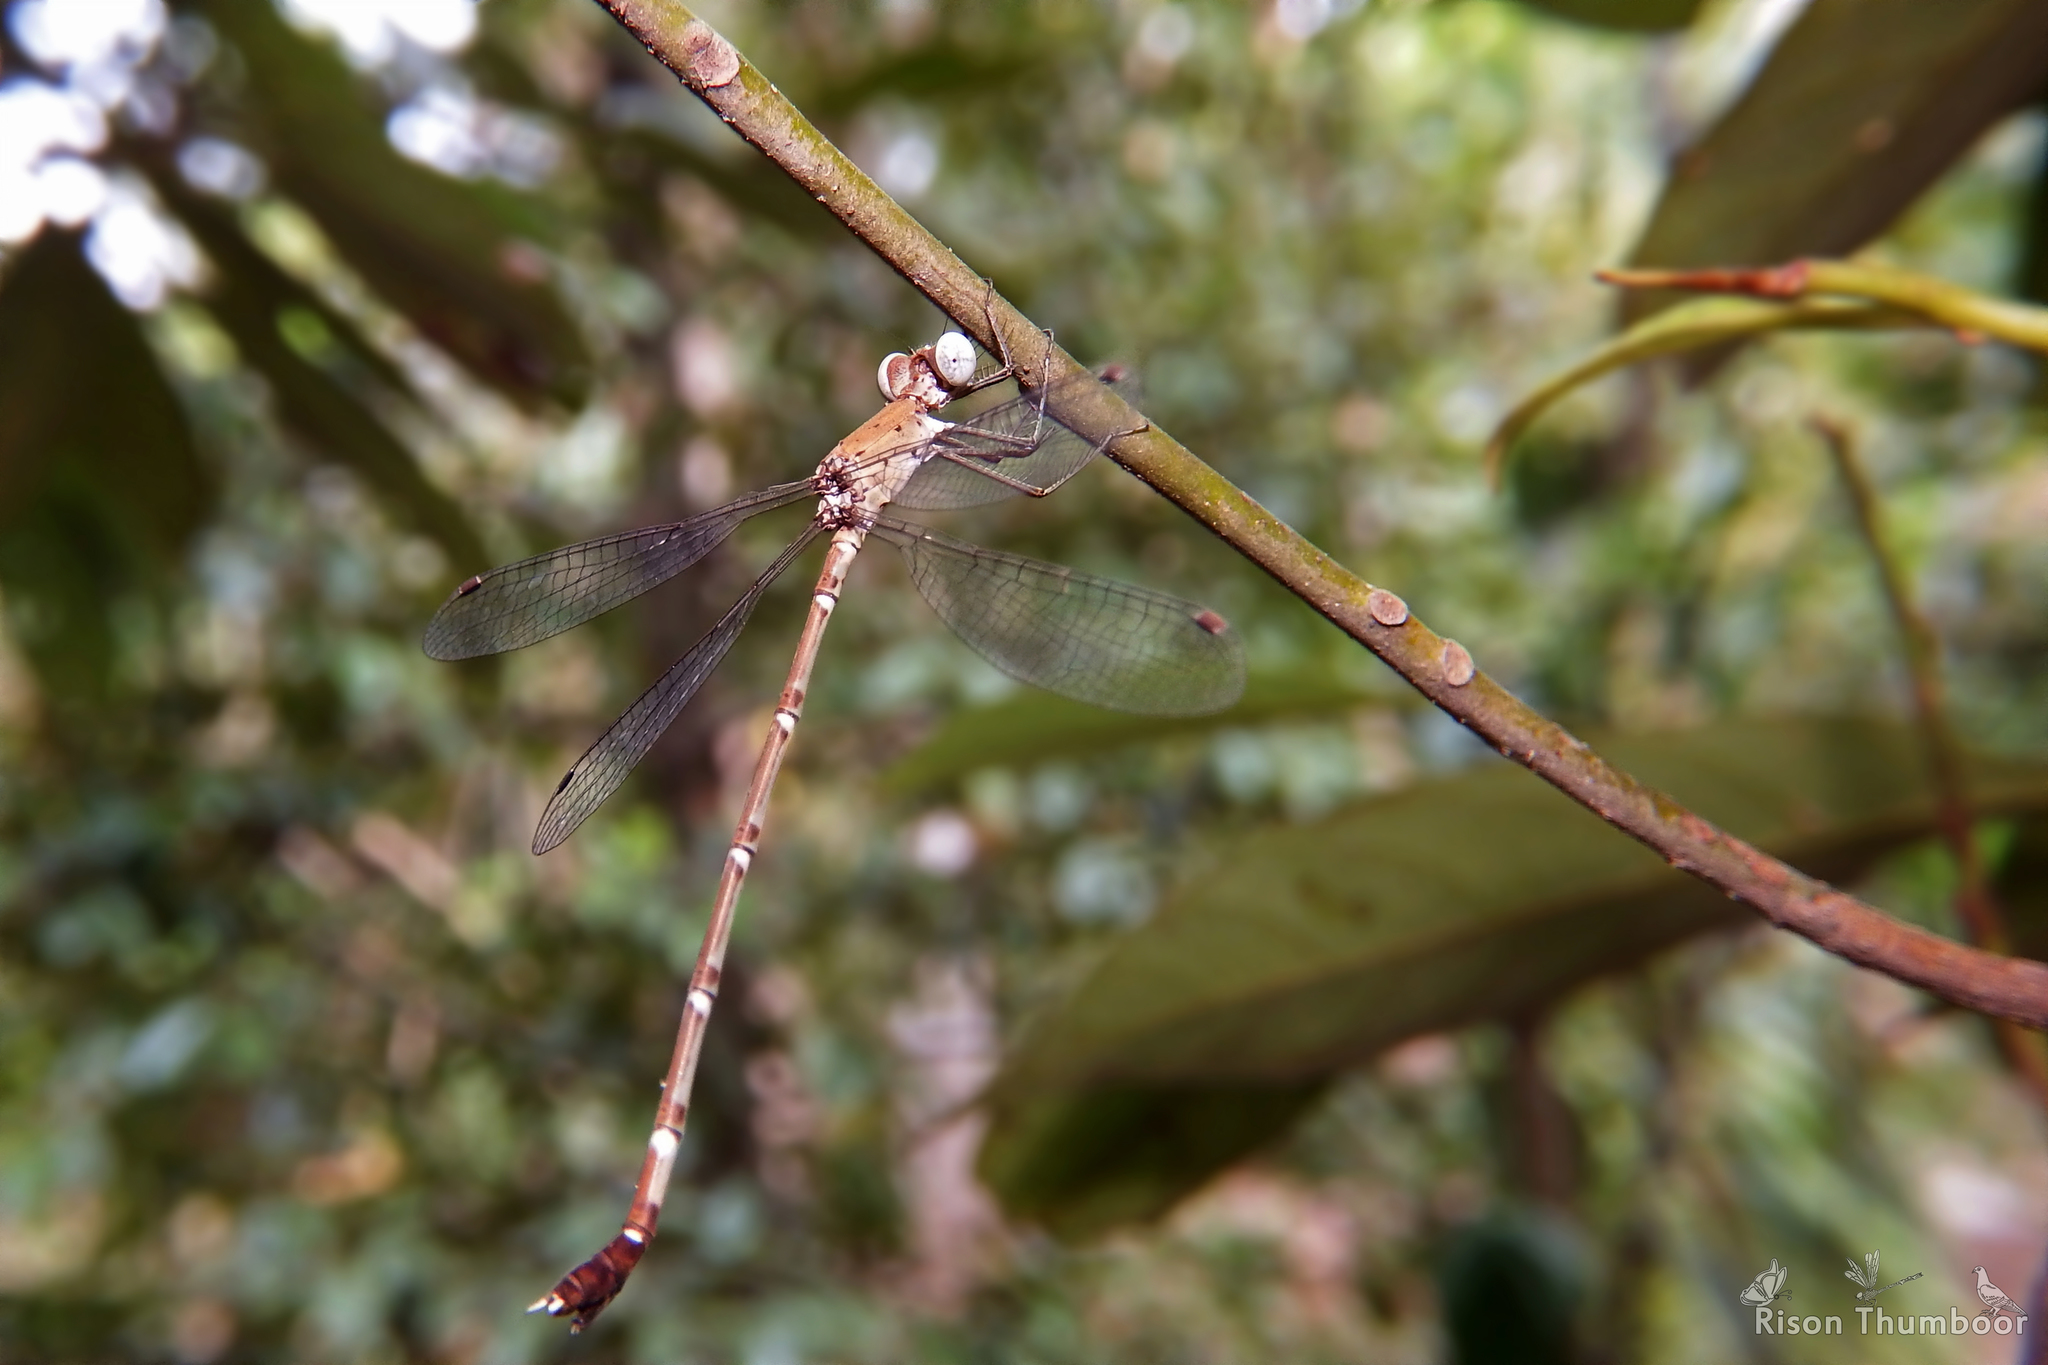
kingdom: Animalia
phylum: Arthropoda
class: Insecta
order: Odonata
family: Lestidae
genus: Platylestes
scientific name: Platylestes platystylus
